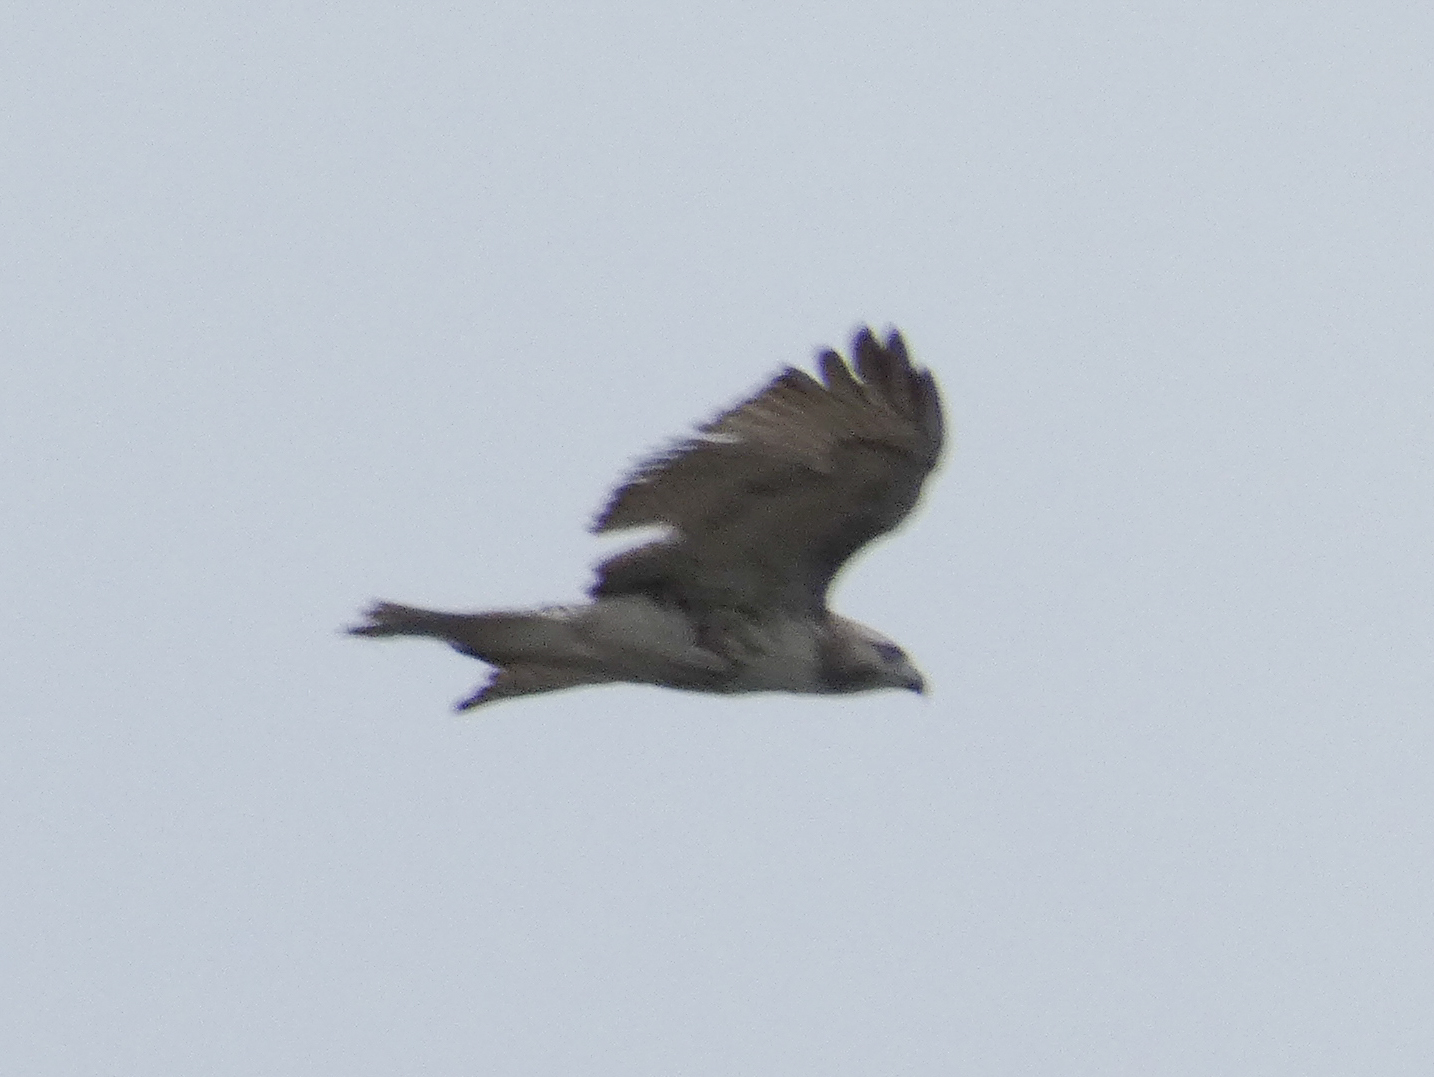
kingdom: Animalia
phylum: Chordata
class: Aves
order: Accipitriformes
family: Accipitridae
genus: Buteo
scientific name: Buteo jamaicensis
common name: Red-tailed hawk
